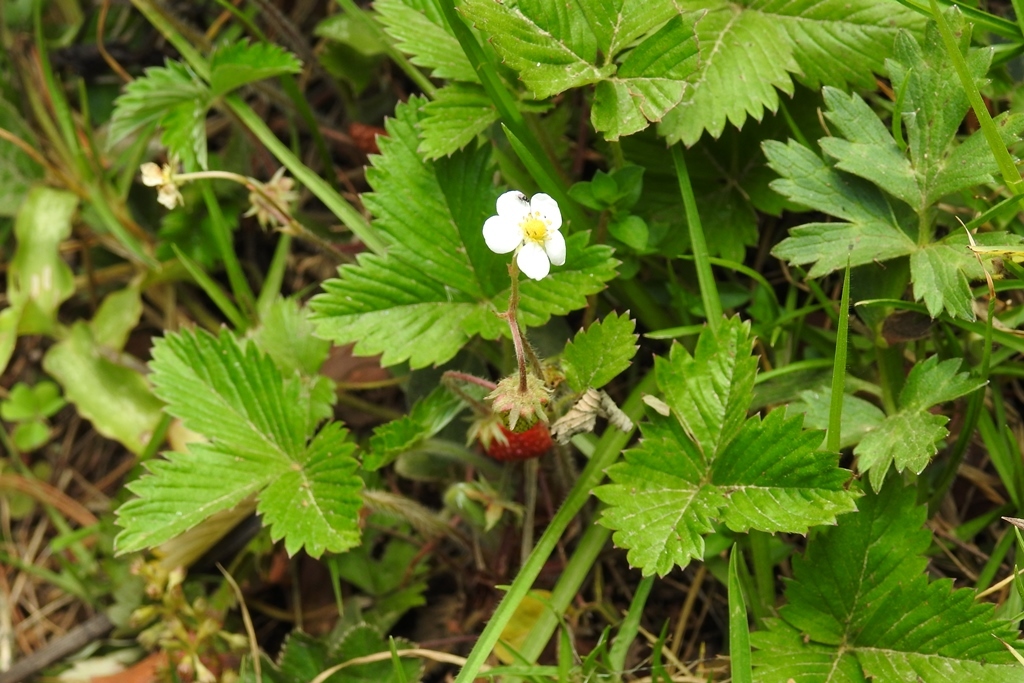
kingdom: Plantae
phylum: Tracheophyta
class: Magnoliopsida
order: Rosales
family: Rosaceae
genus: Fragaria
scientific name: Fragaria vesca
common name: Wild strawberry
